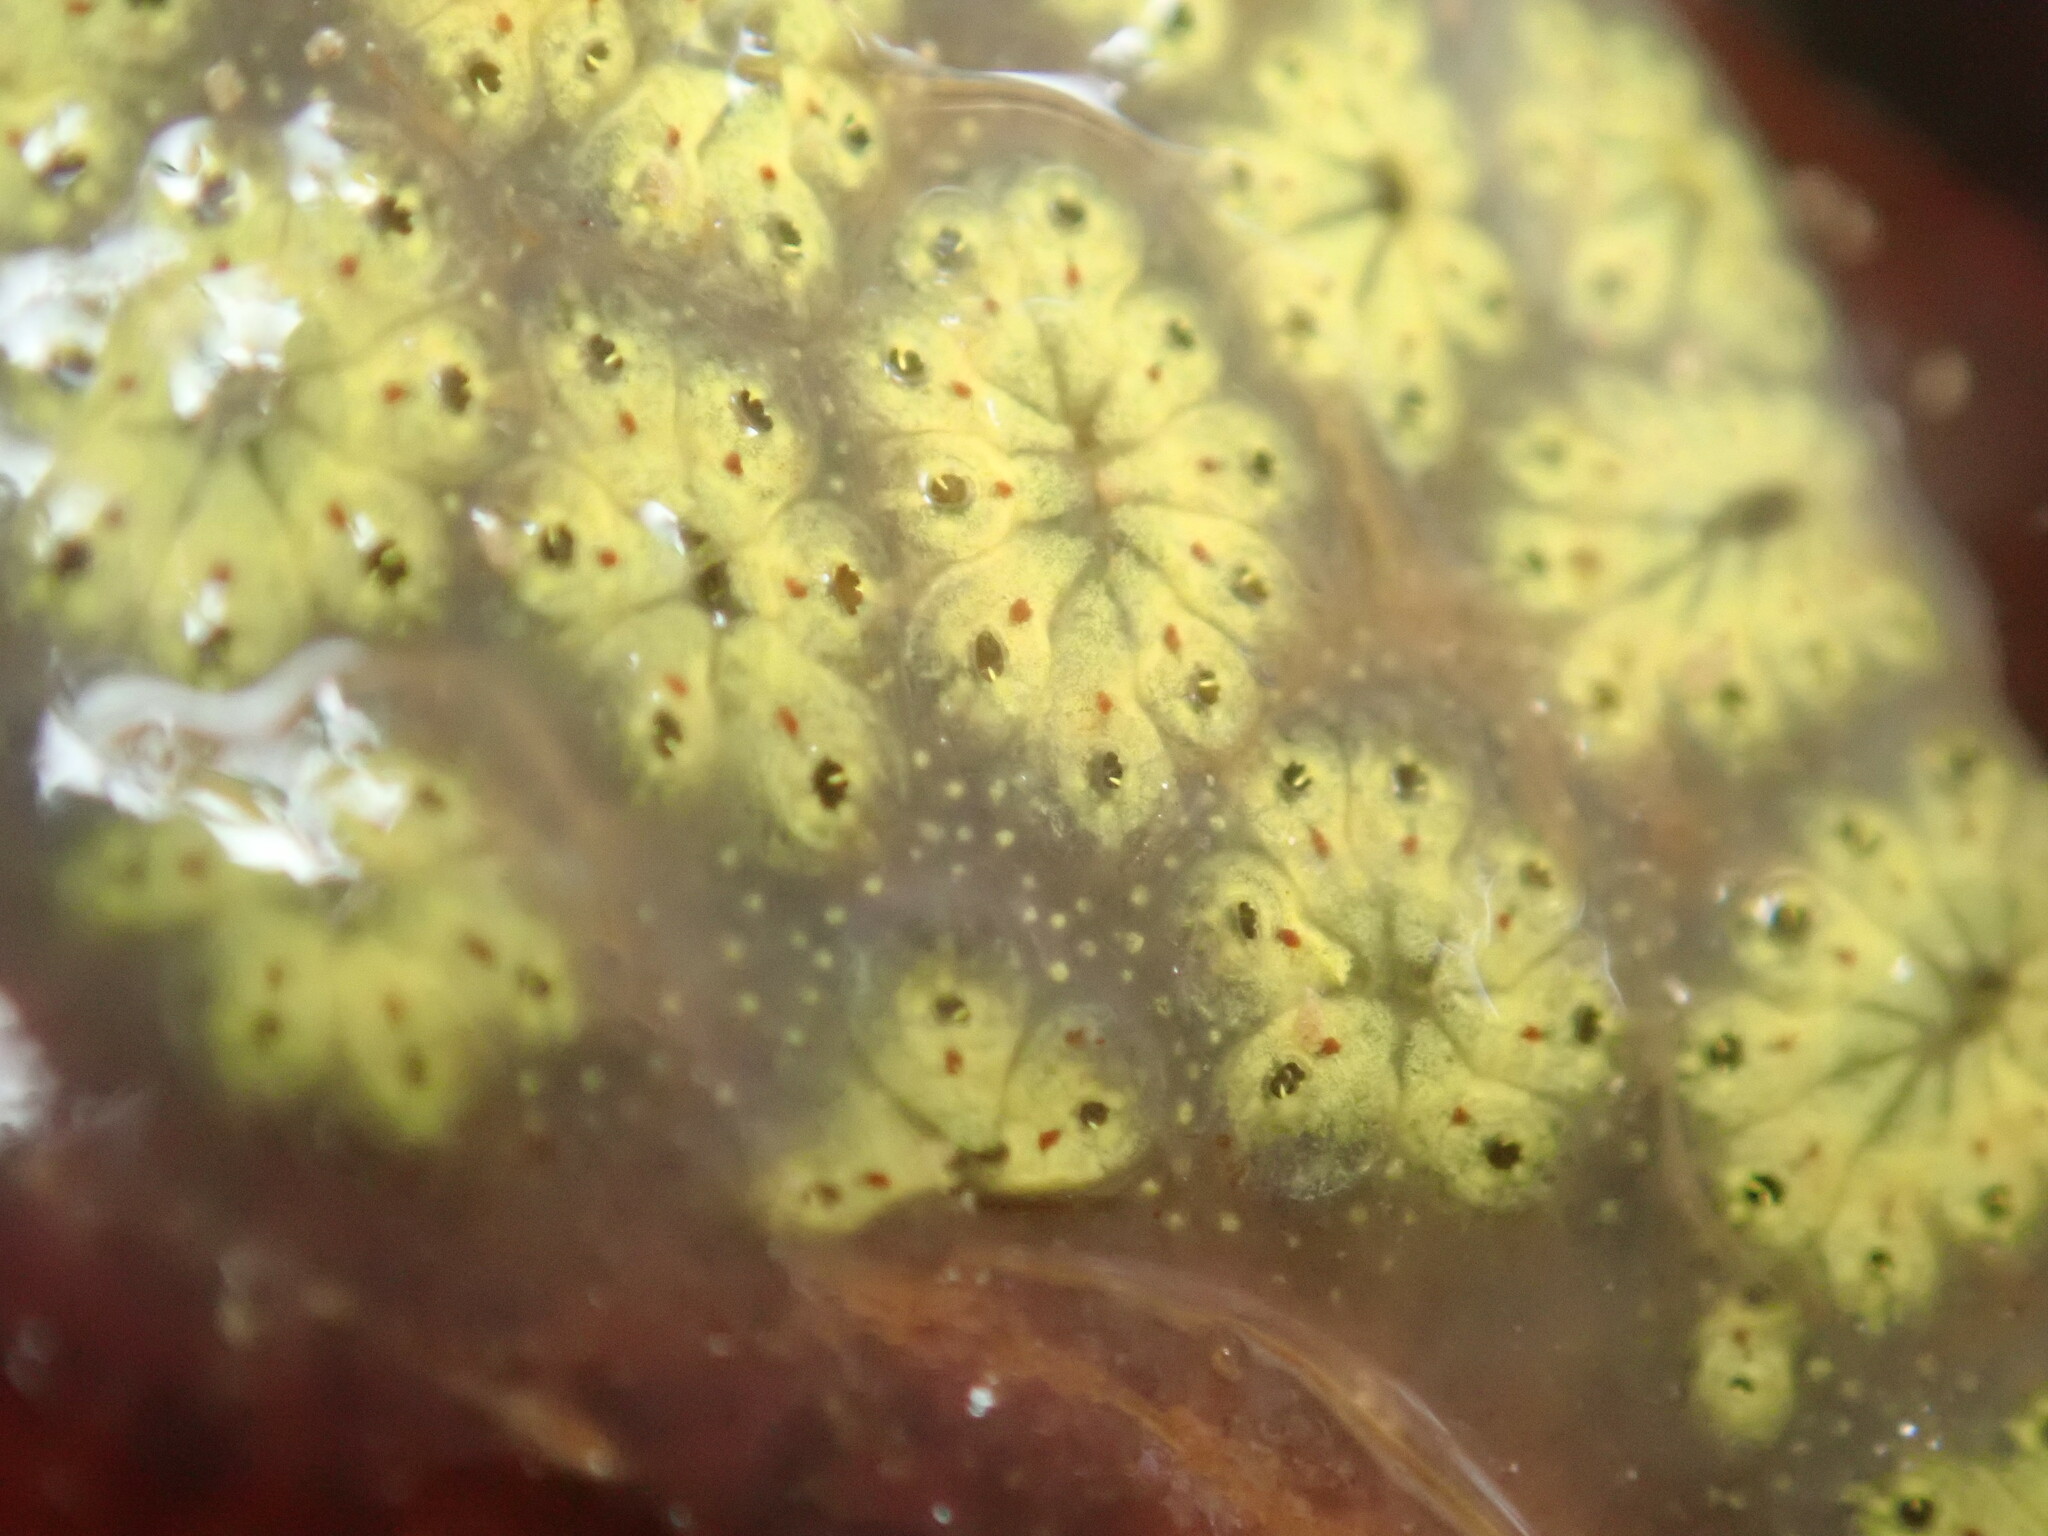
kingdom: Animalia
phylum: Chordata
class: Ascidiacea
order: Stolidobranchia
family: Styelidae
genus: Botryllus
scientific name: Botryllus schlosseri
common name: Golden star tunicate
